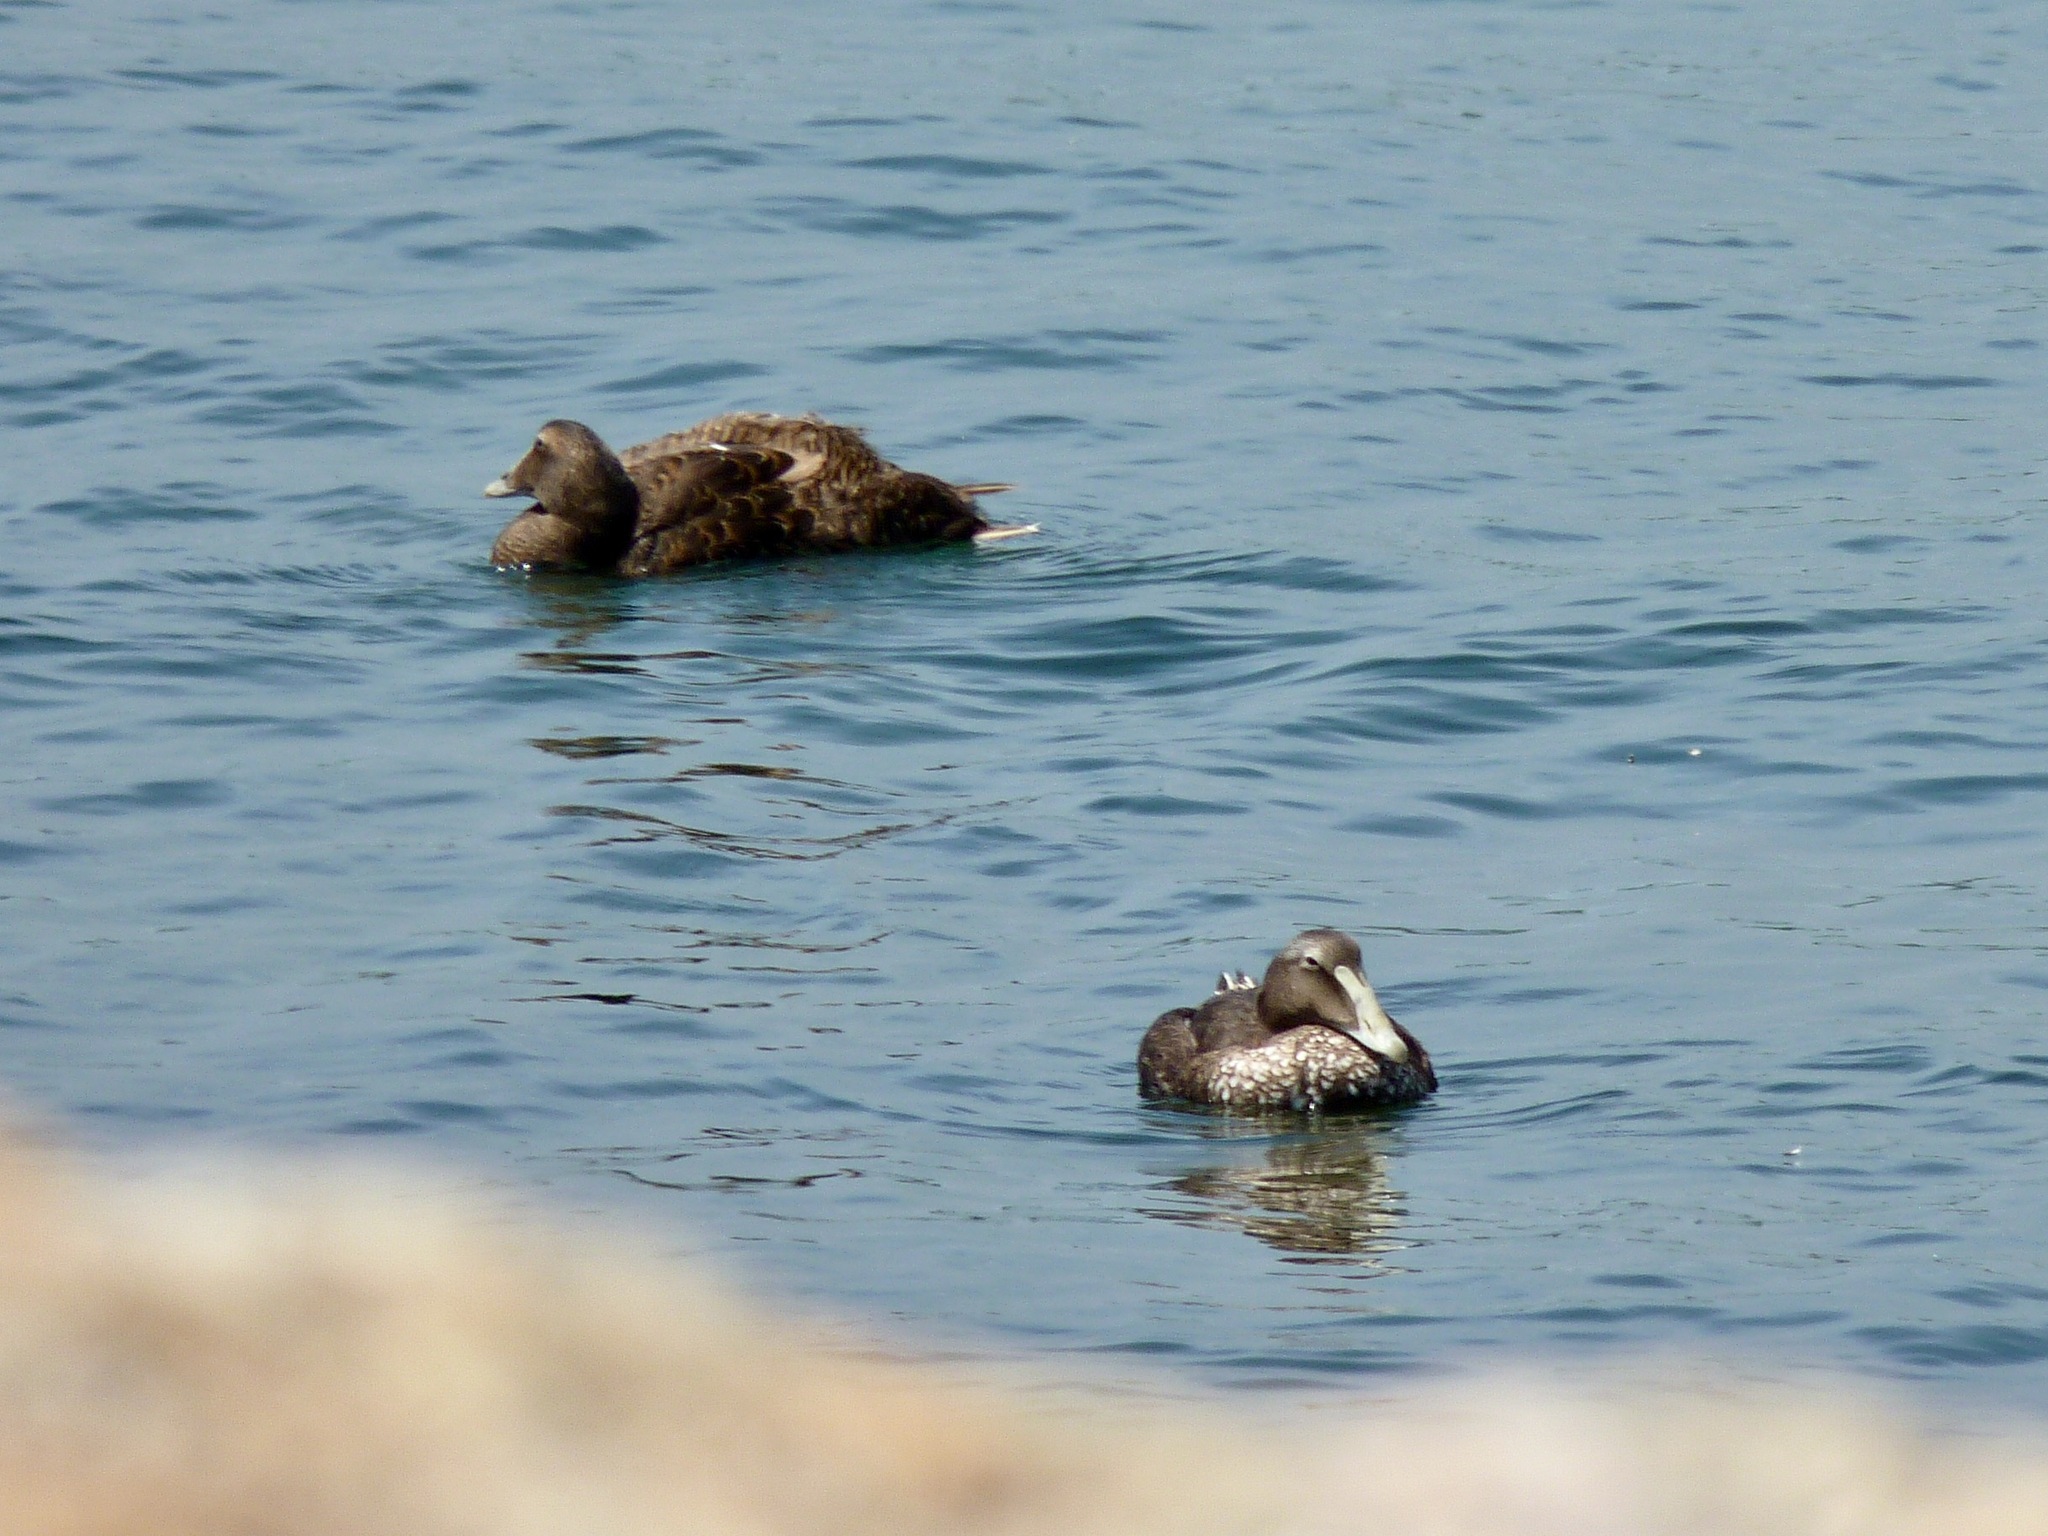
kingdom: Animalia
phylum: Chordata
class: Aves
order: Anseriformes
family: Anatidae
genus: Somateria
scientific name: Somateria mollissima
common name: Common eider
